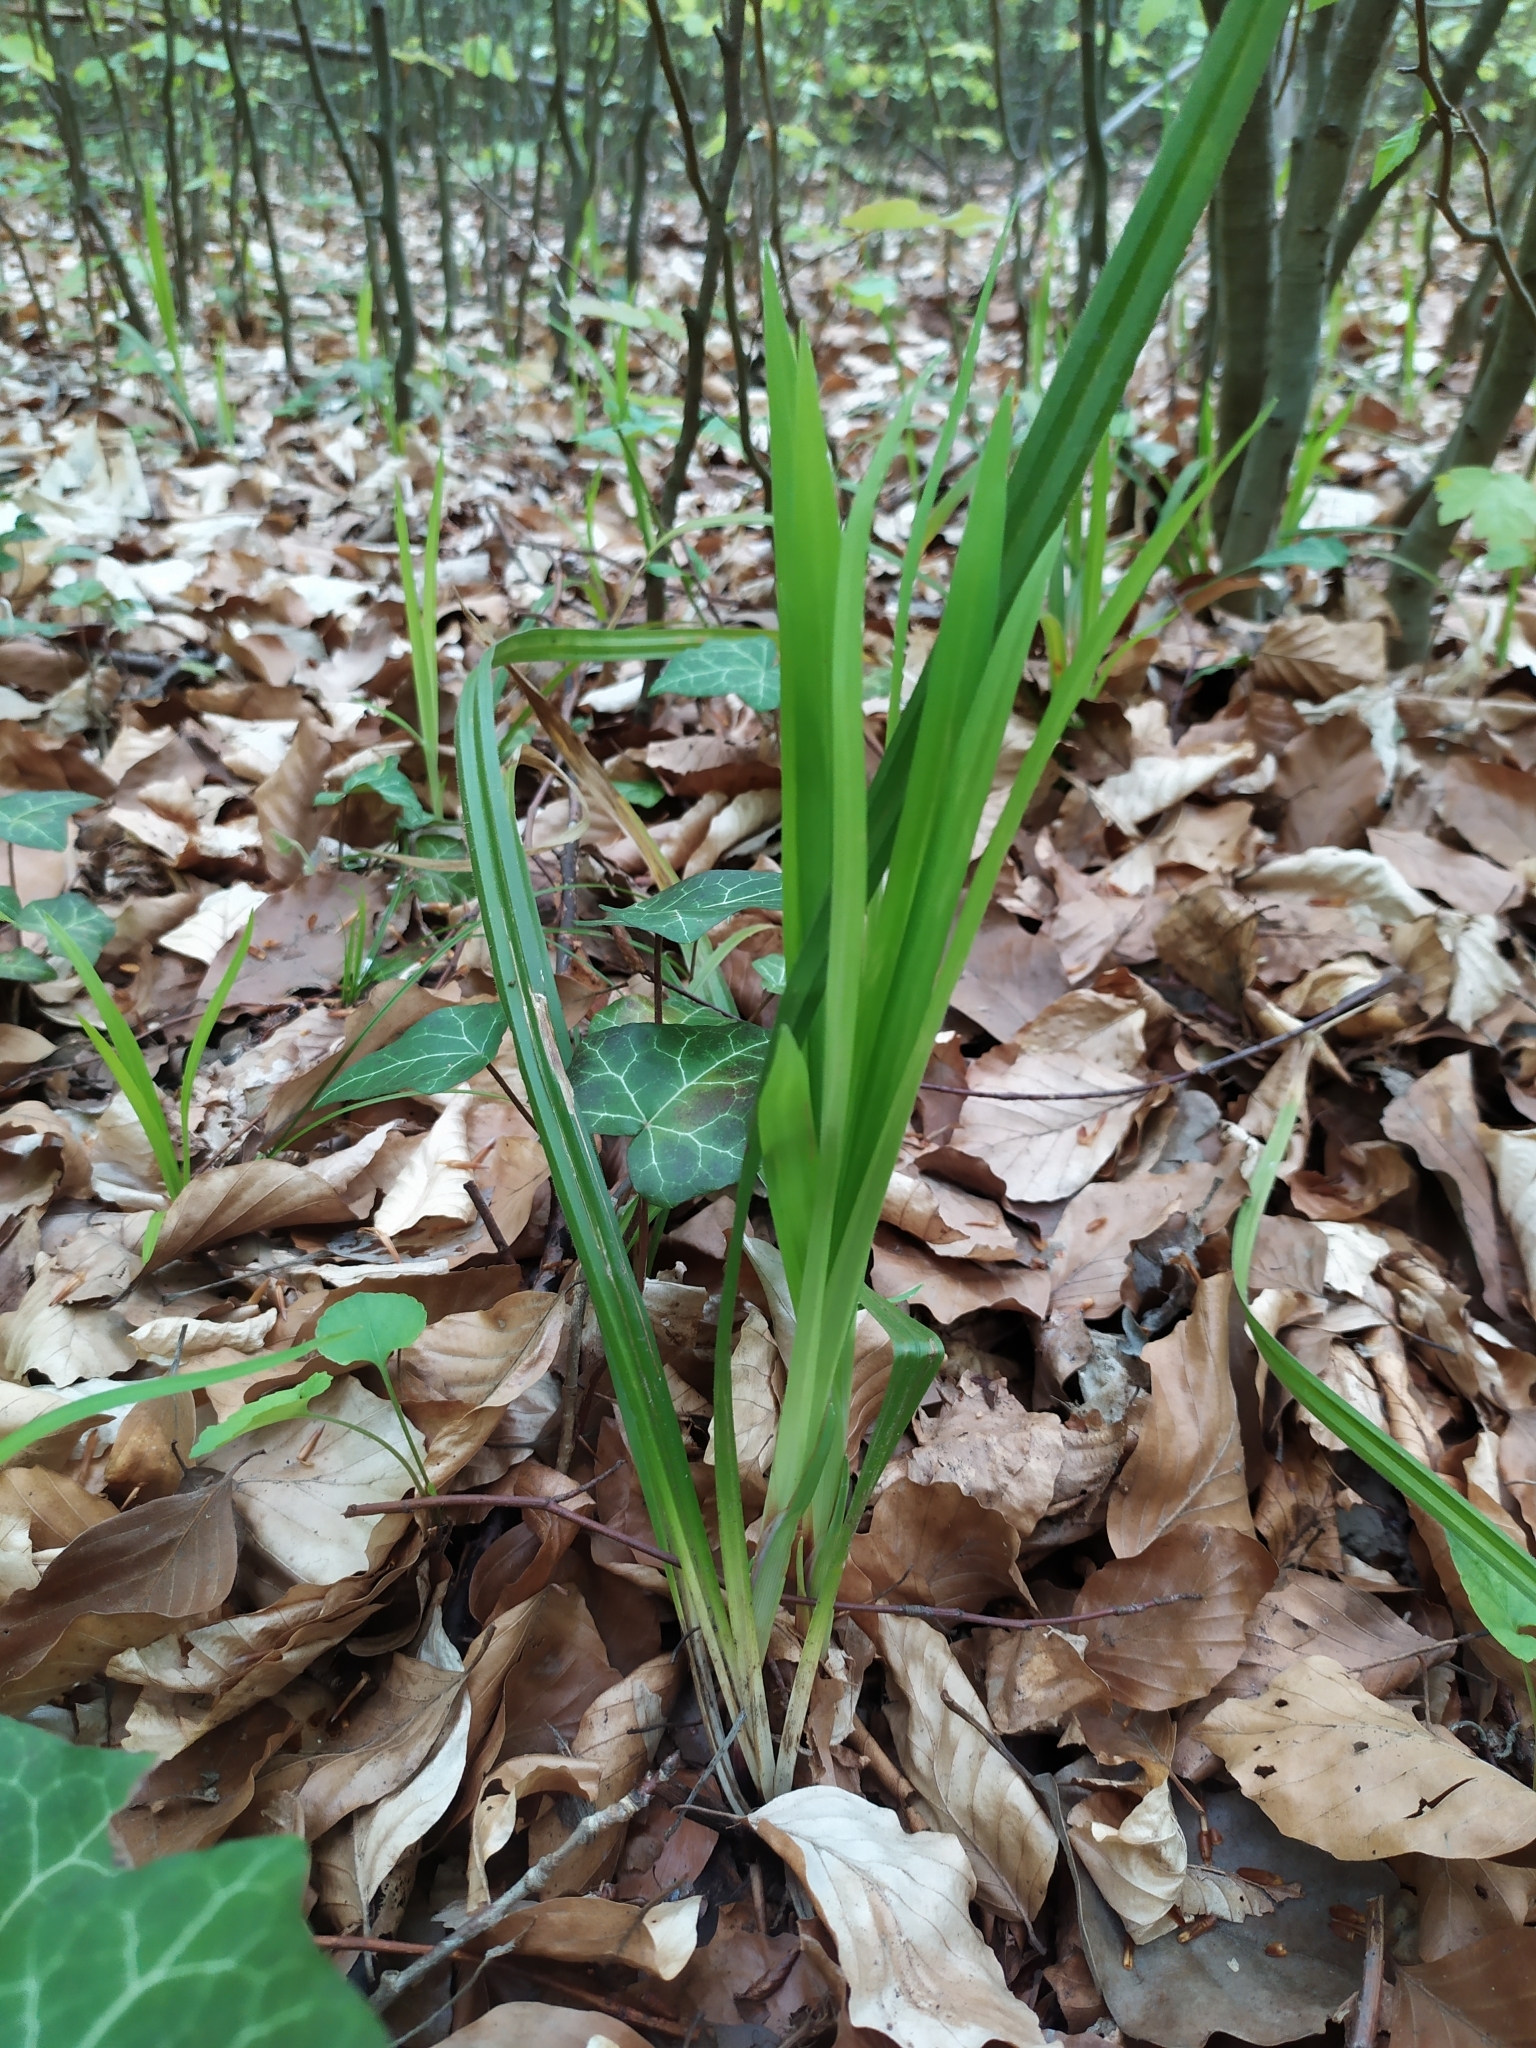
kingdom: Plantae
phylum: Tracheophyta
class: Liliopsida
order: Poales
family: Cyperaceae
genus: Carex
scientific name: Carex pilosa
